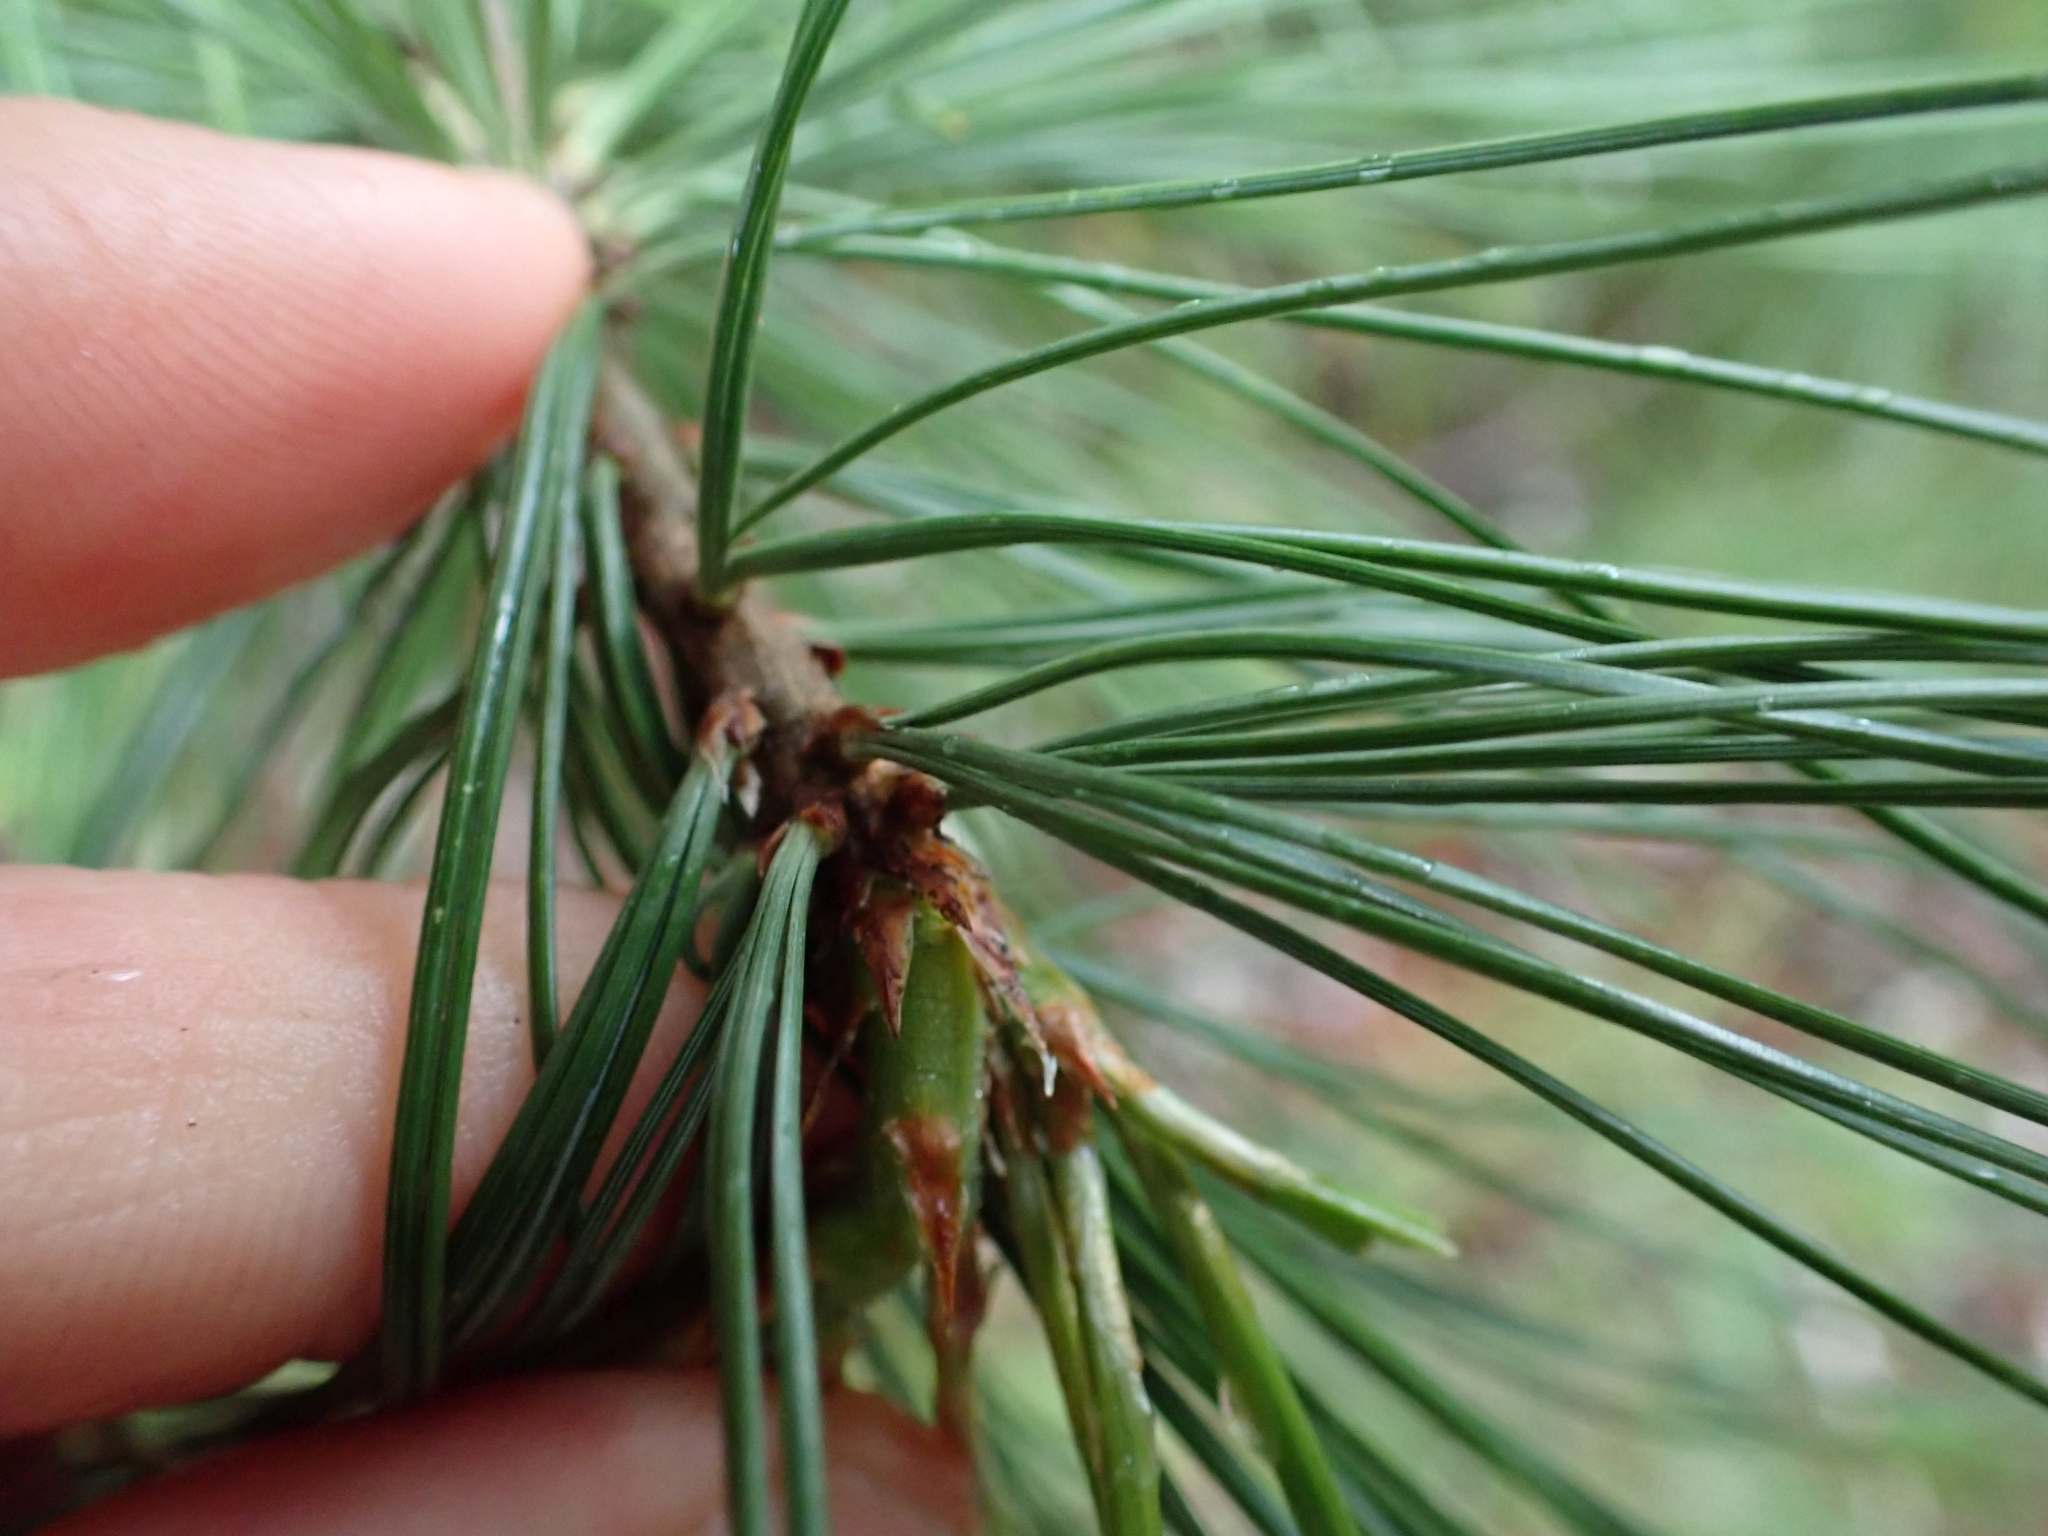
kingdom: Plantae
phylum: Tracheophyta
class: Pinopsida
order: Pinales
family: Pinaceae
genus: Pinus
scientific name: Pinus monticola
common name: Western white pine
